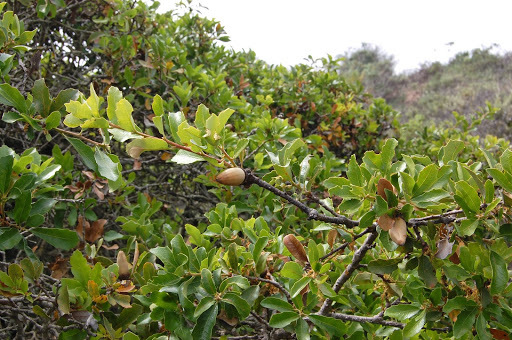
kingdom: Plantae
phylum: Tracheophyta
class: Magnoliopsida
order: Fagales
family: Fagaceae
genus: Quercus
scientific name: Quercus pacifica
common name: Channel island scrub oak
